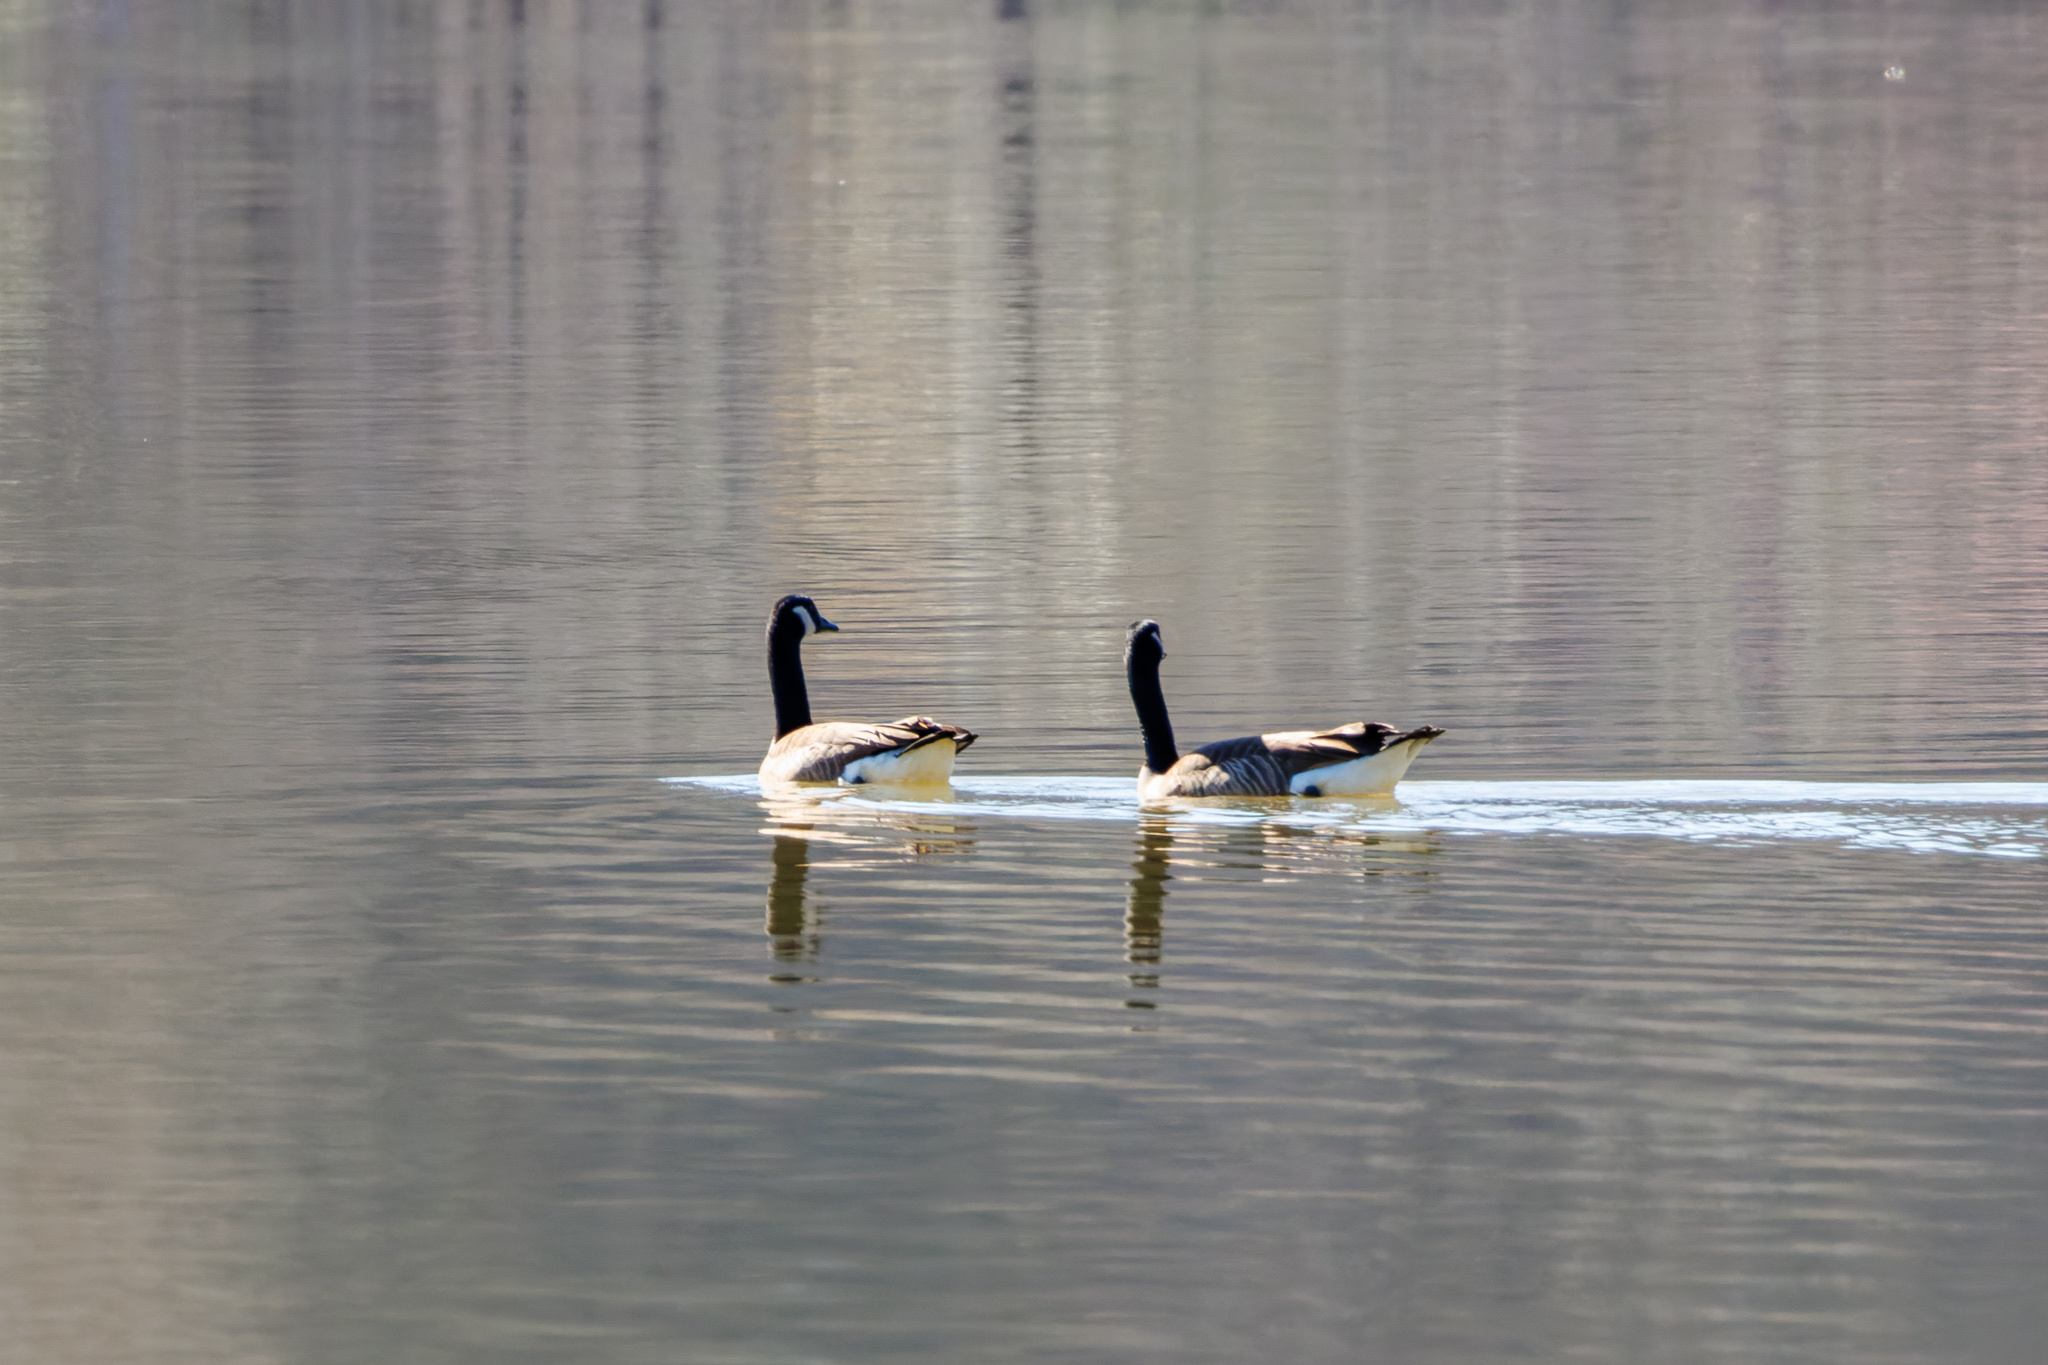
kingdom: Animalia
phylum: Chordata
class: Aves
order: Anseriformes
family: Anatidae
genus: Branta
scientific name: Branta canadensis
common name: Canada goose
